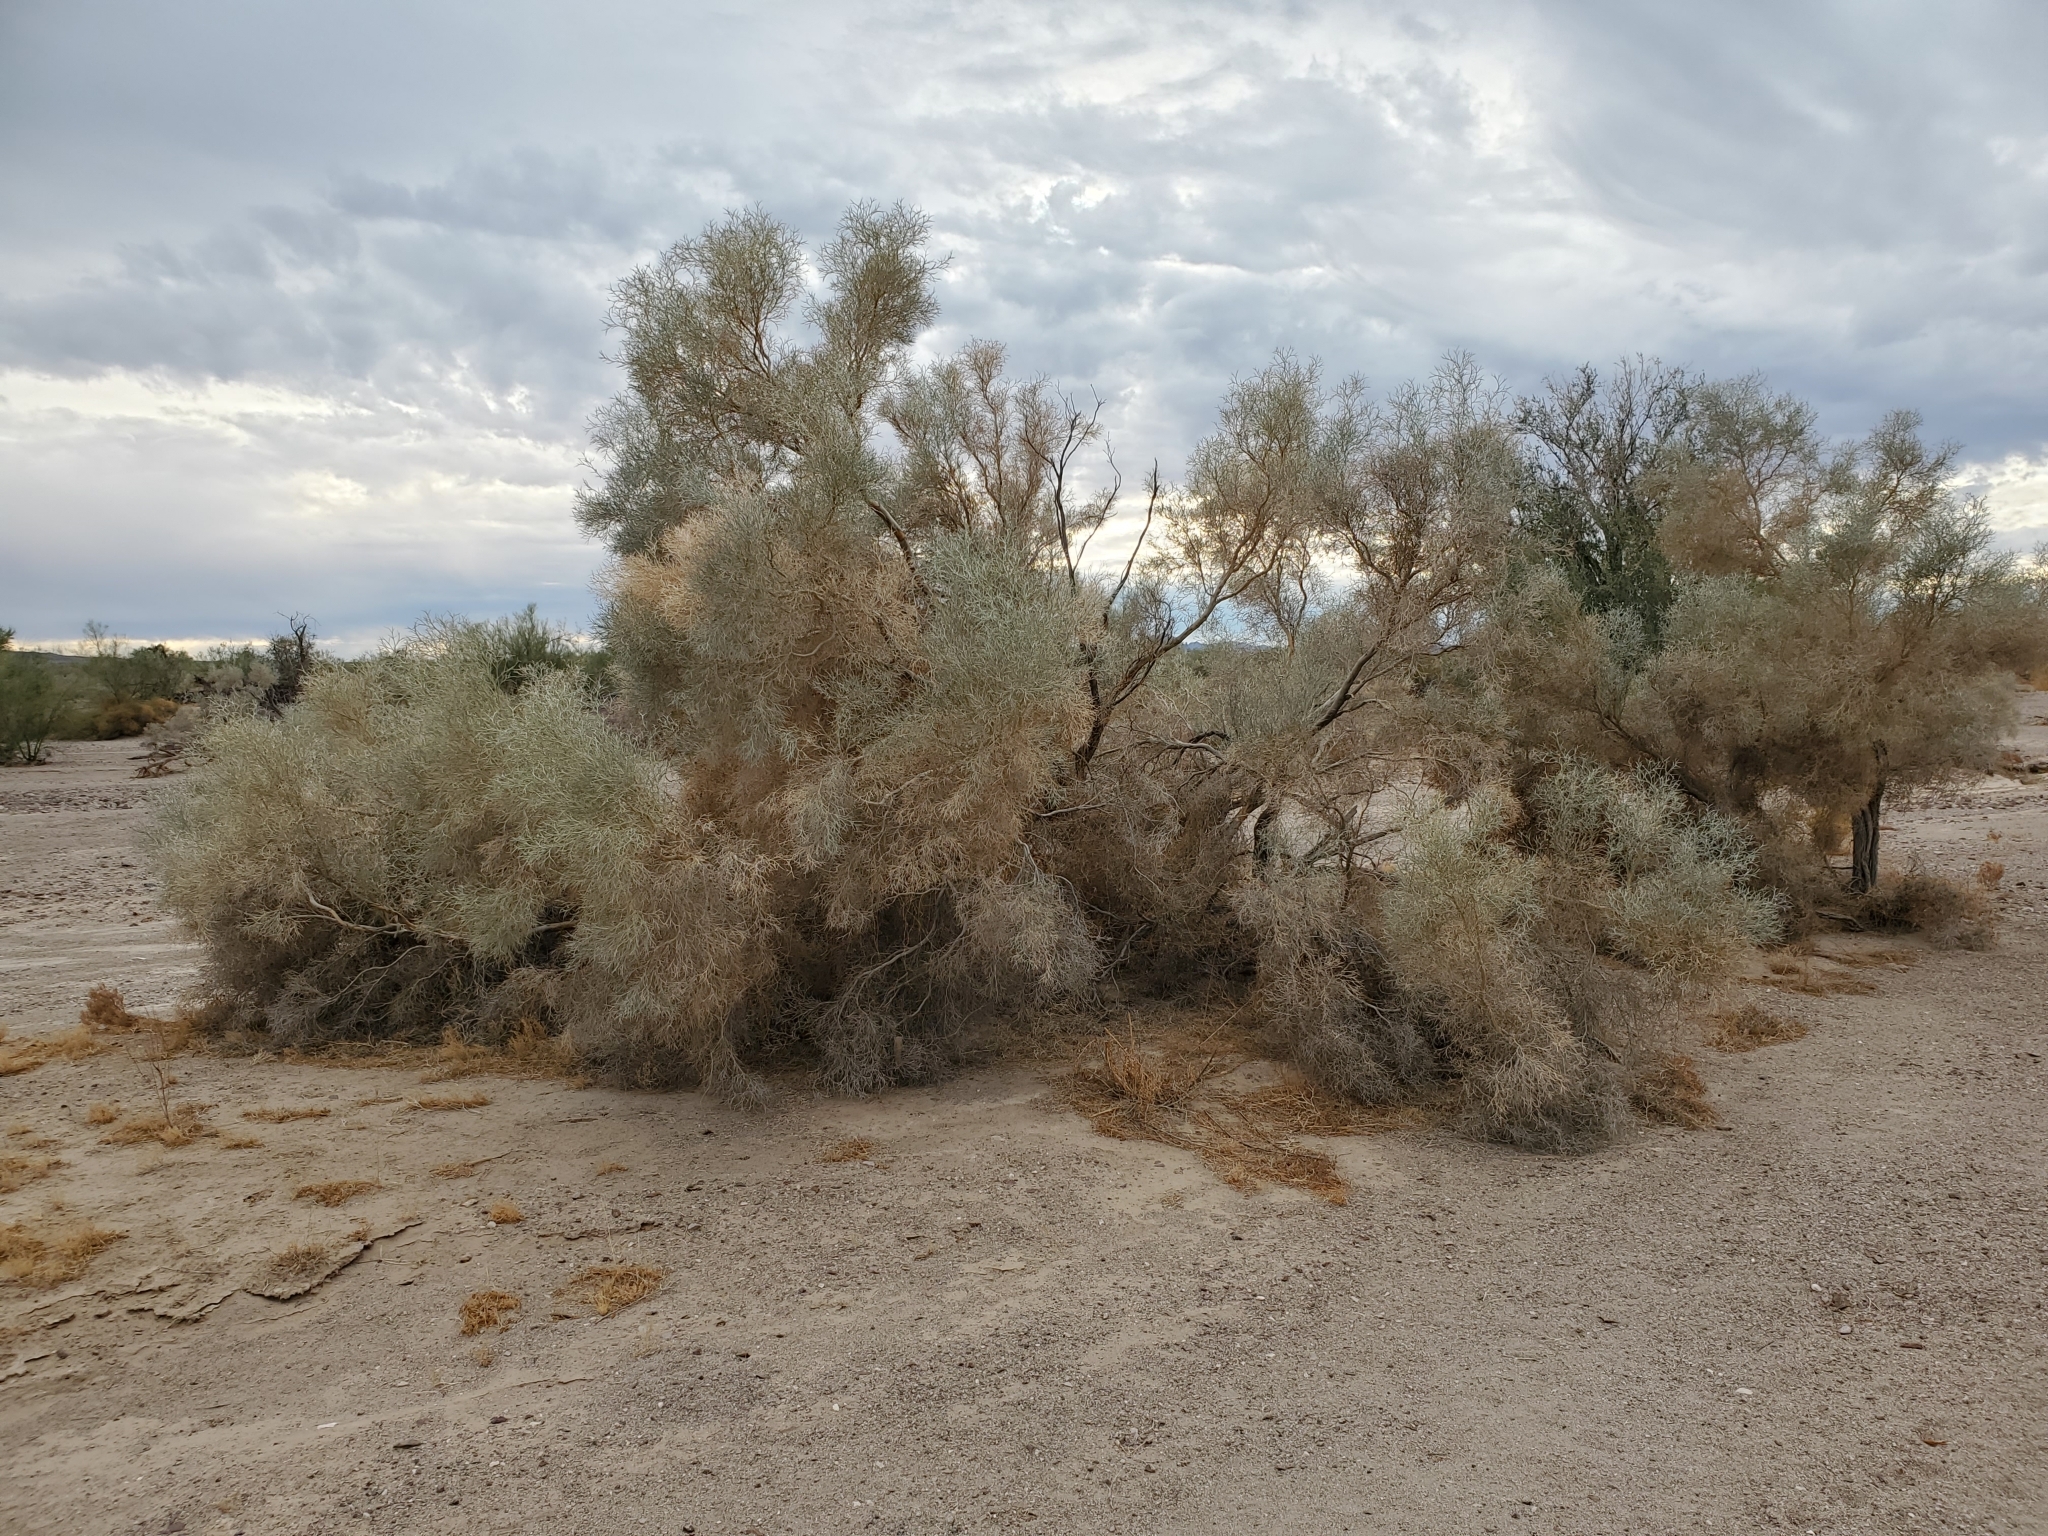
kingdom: Plantae
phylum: Tracheophyta
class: Magnoliopsida
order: Fabales
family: Fabaceae
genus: Psorothamnus
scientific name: Psorothamnus spinosus
